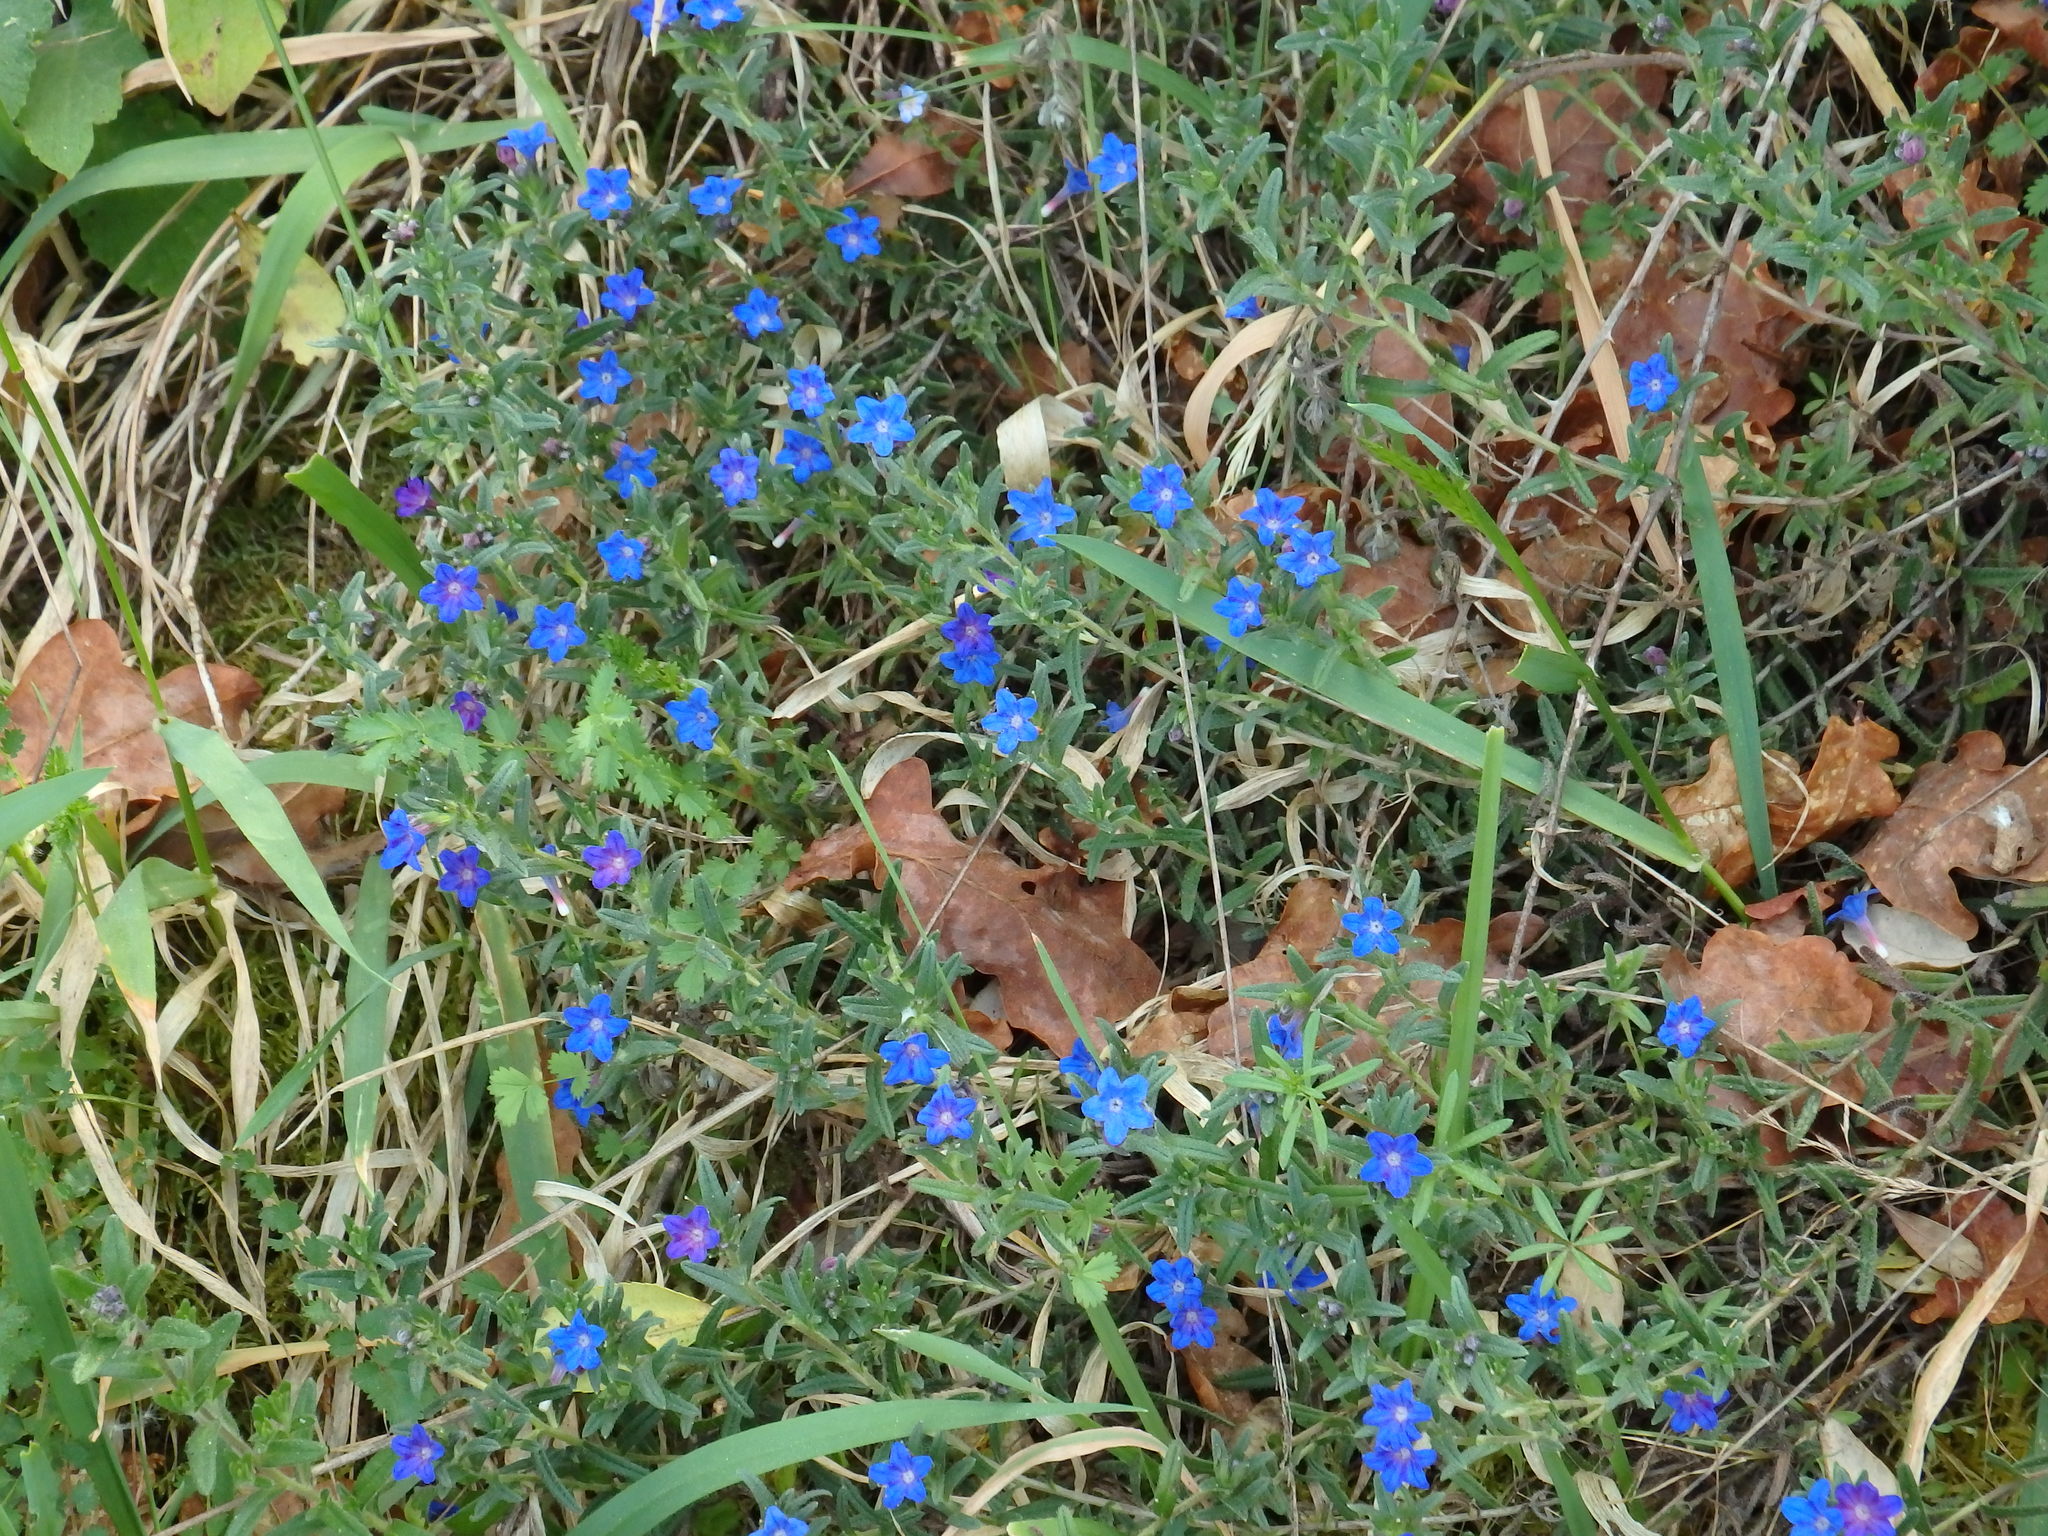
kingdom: Plantae
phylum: Tracheophyta
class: Magnoliopsida
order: Boraginales
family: Boraginaceae
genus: Glandora
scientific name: Glandora prostrata
